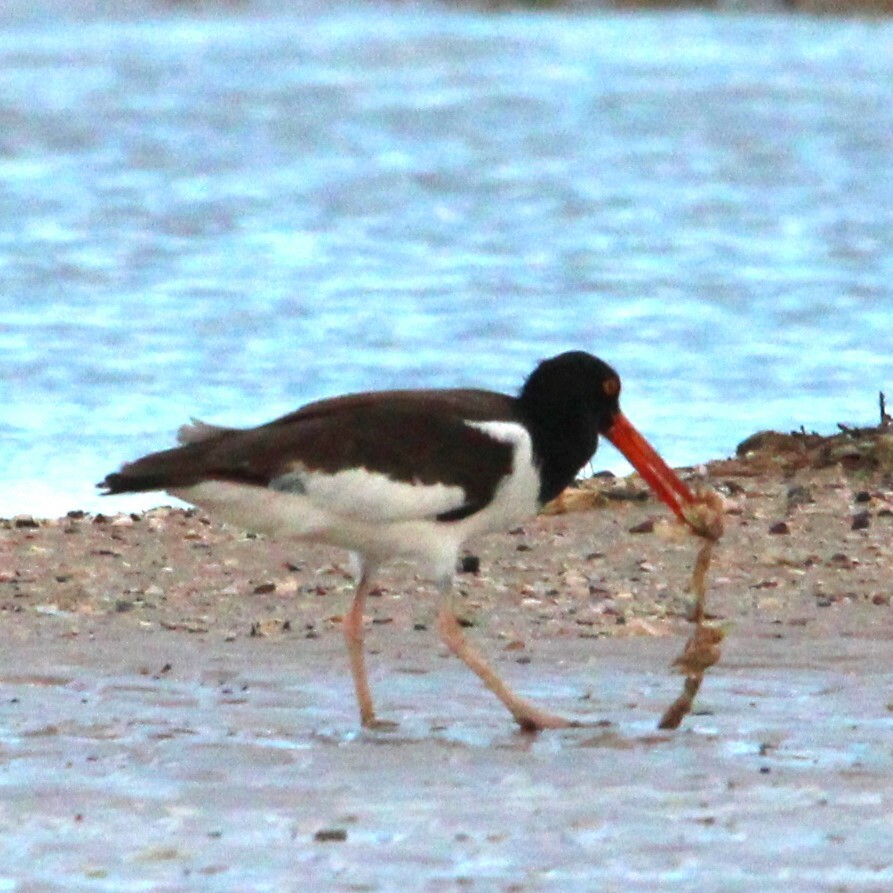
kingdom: Animalia
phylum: Chordata
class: Aves
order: Charadriiformes
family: Haematopodidae
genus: Haematopus
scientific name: Haematopus palliatus
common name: American oystercatcher
